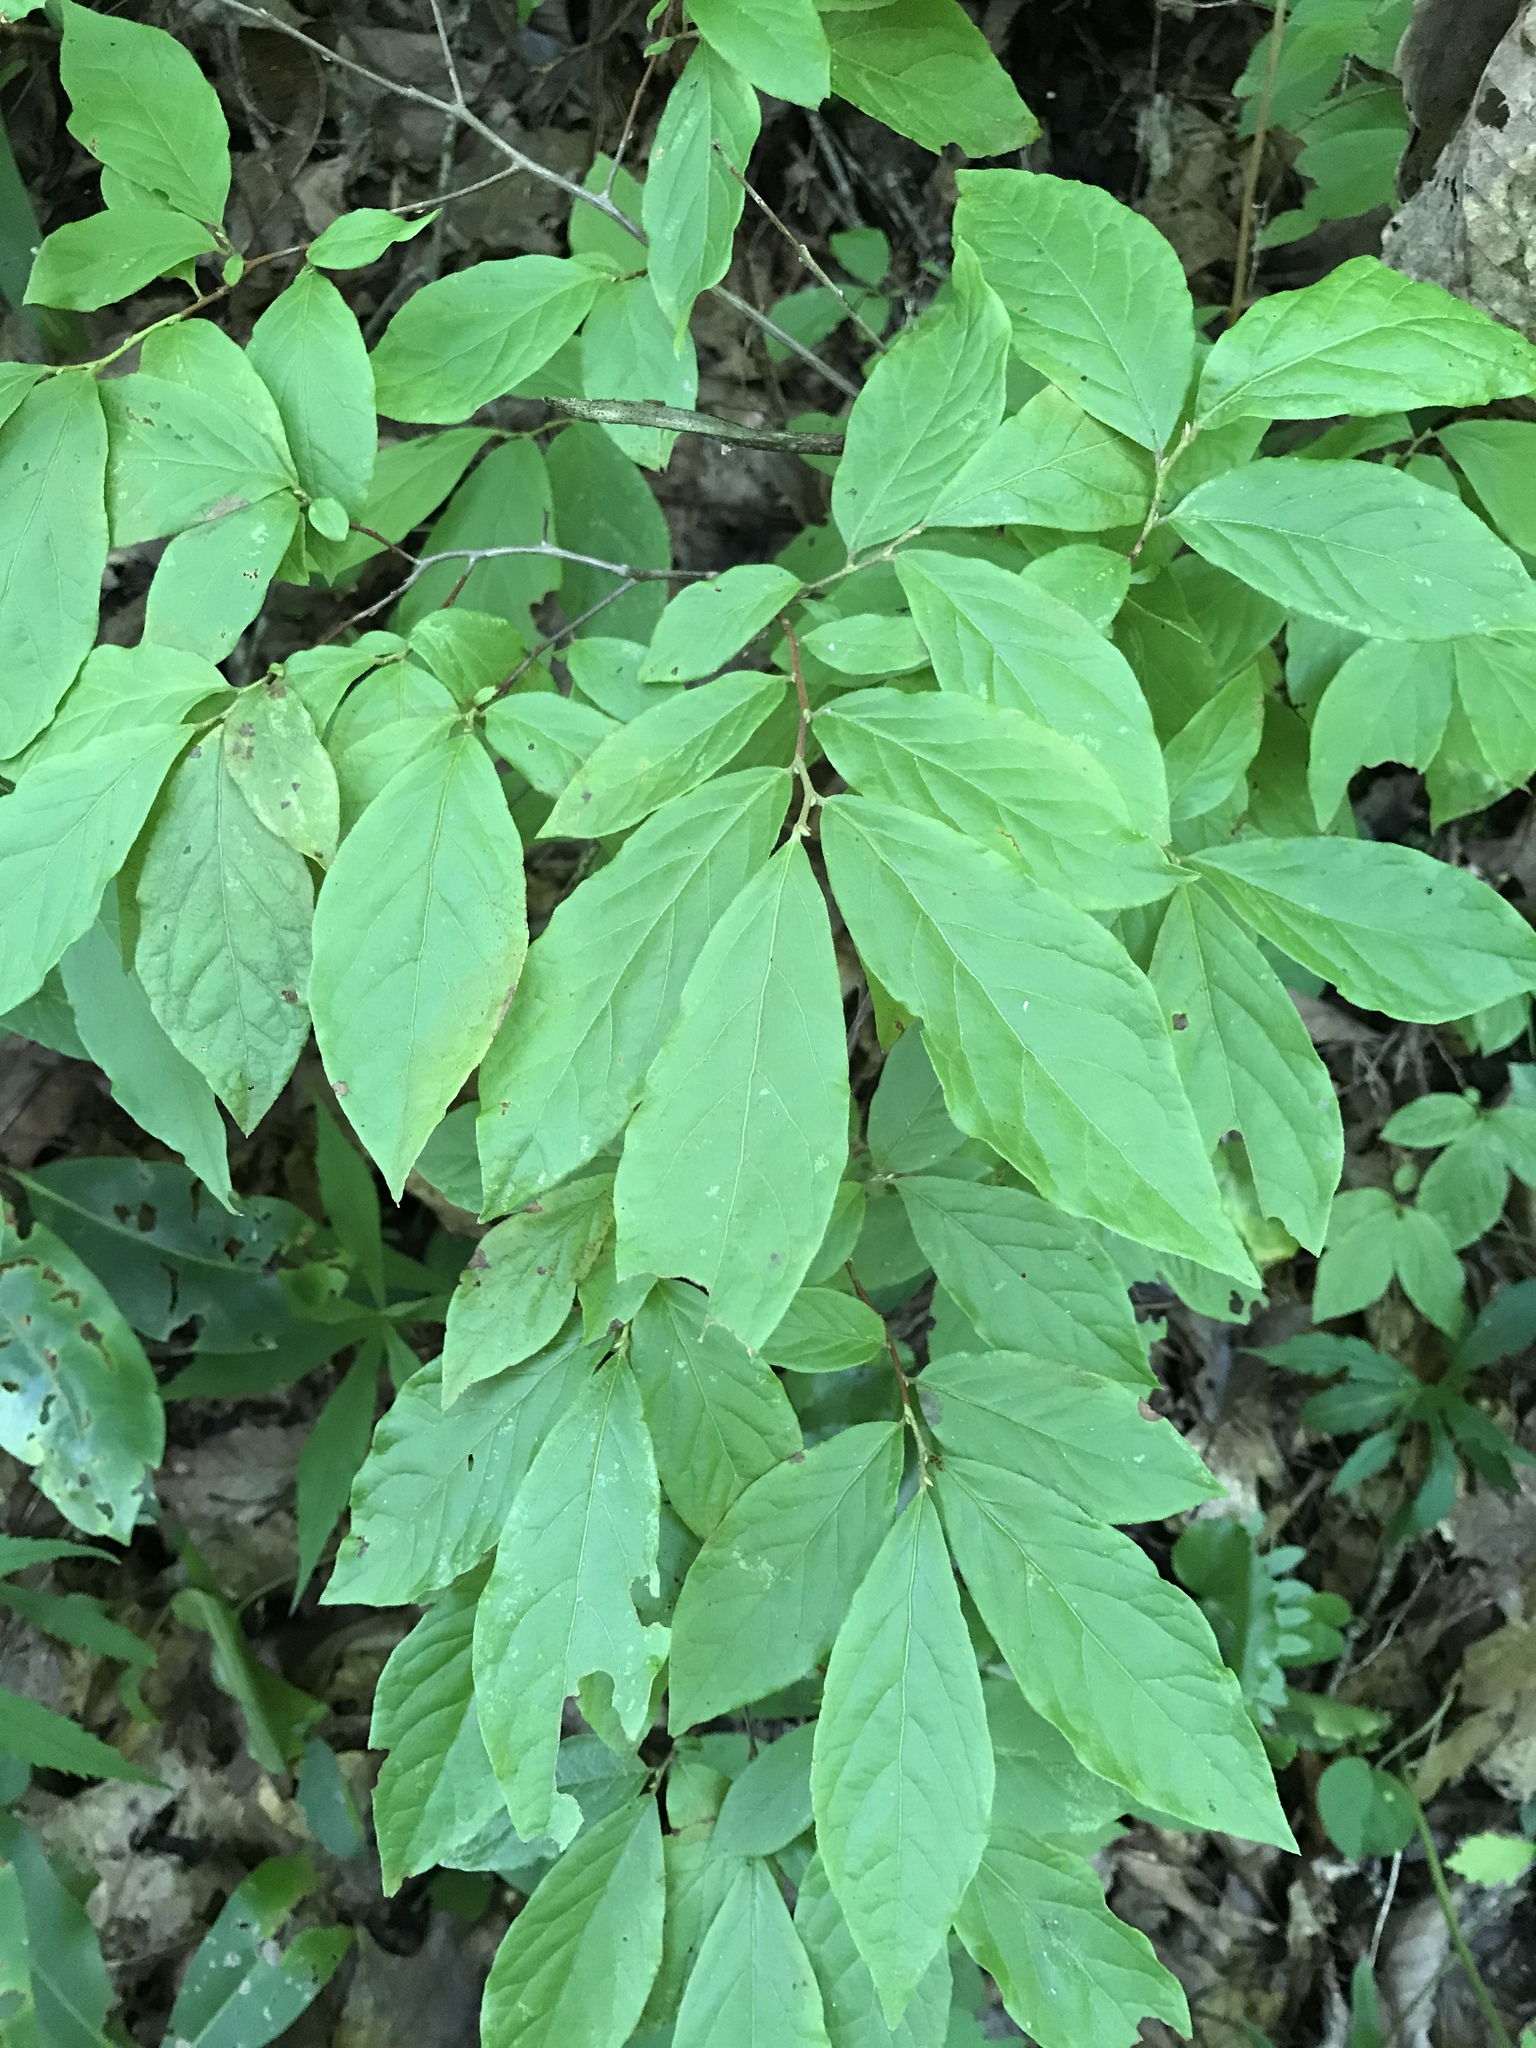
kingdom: Plantae
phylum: Tracheophyta
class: Magnoliopsida
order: Ericales
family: Ericaceae
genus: Gaylussacia
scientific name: Gaylussacia ursina
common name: Bear huckleberry
